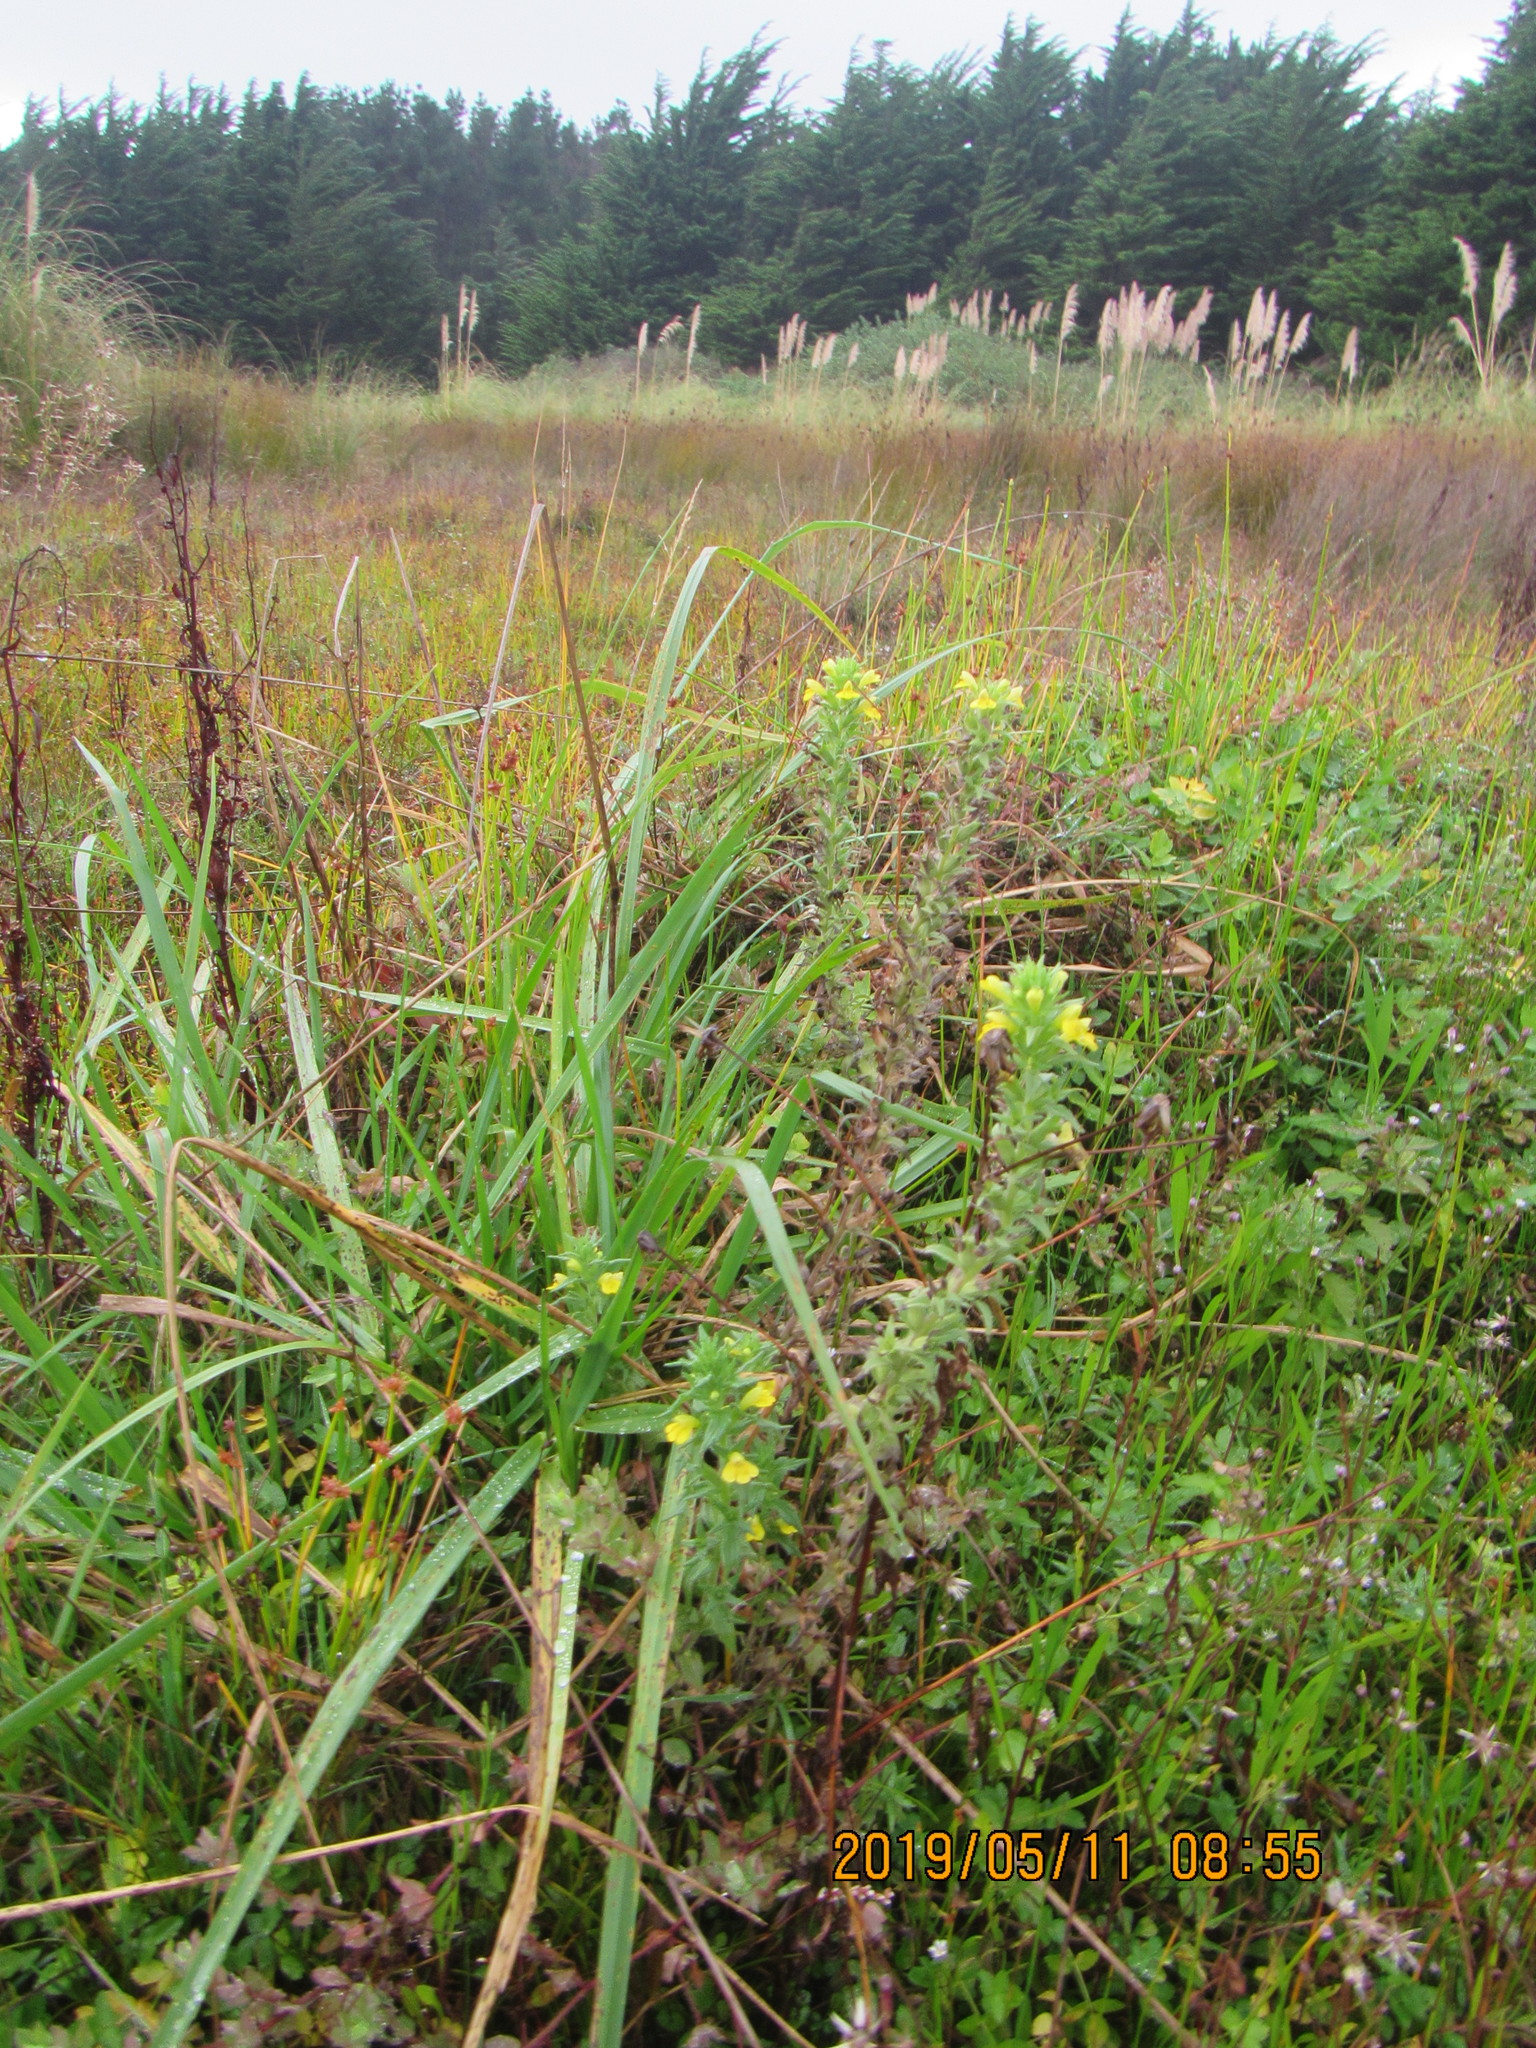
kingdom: Plantae
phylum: Tracheophyta
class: Magnoliopsida
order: Lamiales
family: Orobanchaceae
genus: Bellardia
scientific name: Bellardia viscosa
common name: Sticky parentucellia
